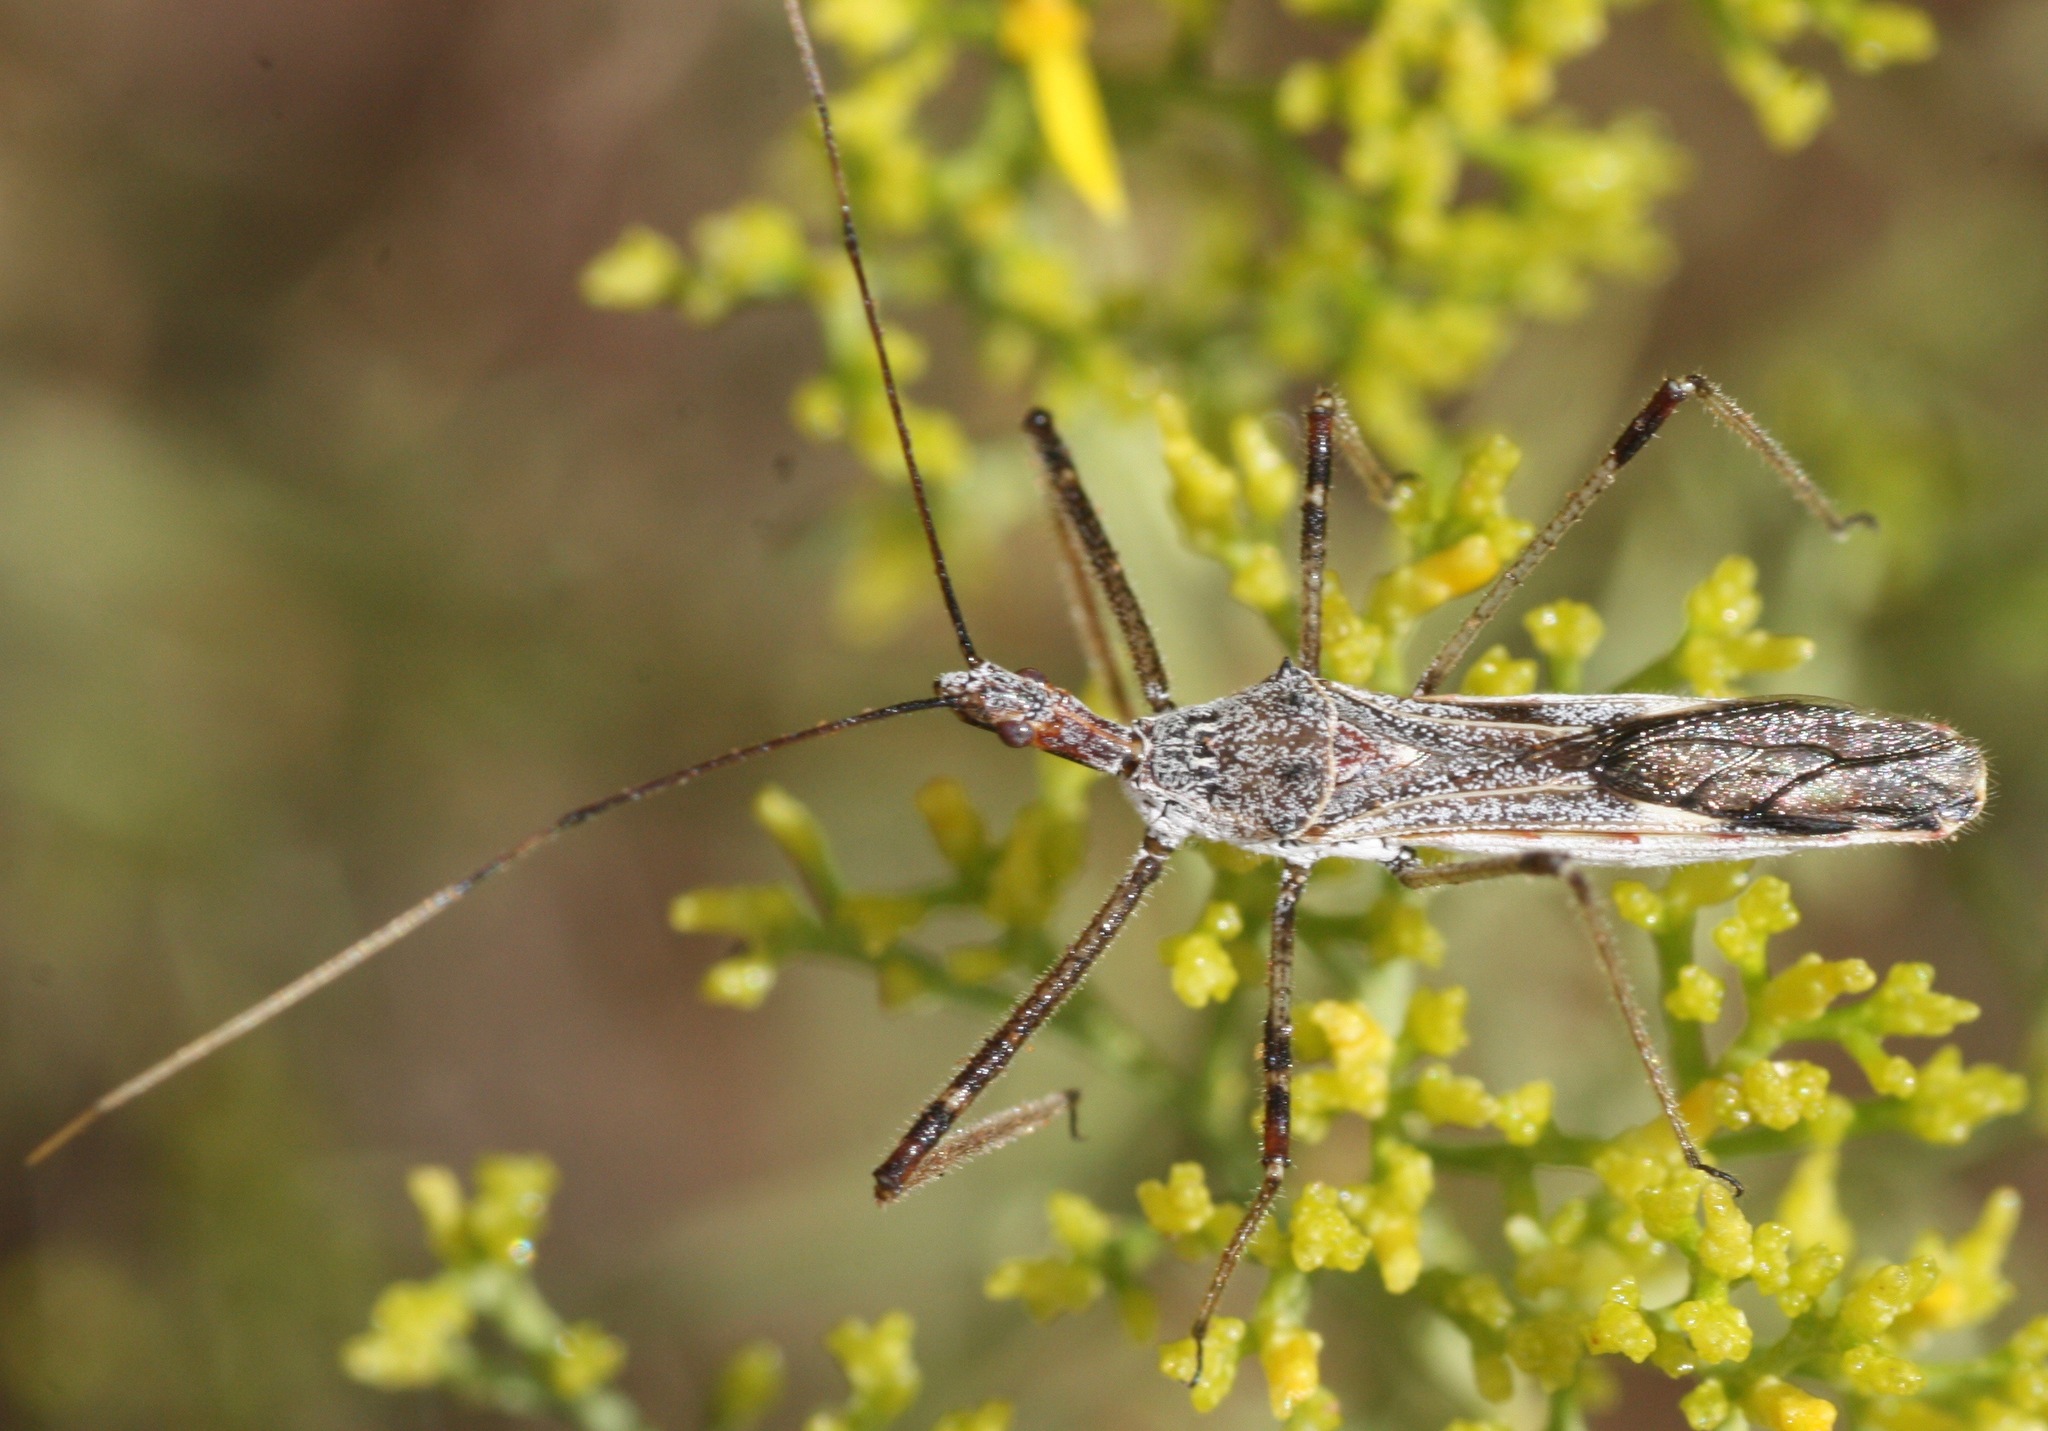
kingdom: Animalia
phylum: Arthropoda
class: Insecta
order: Hemiptera
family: Reduviidae
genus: Zelus
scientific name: Zelus tetracanthus
